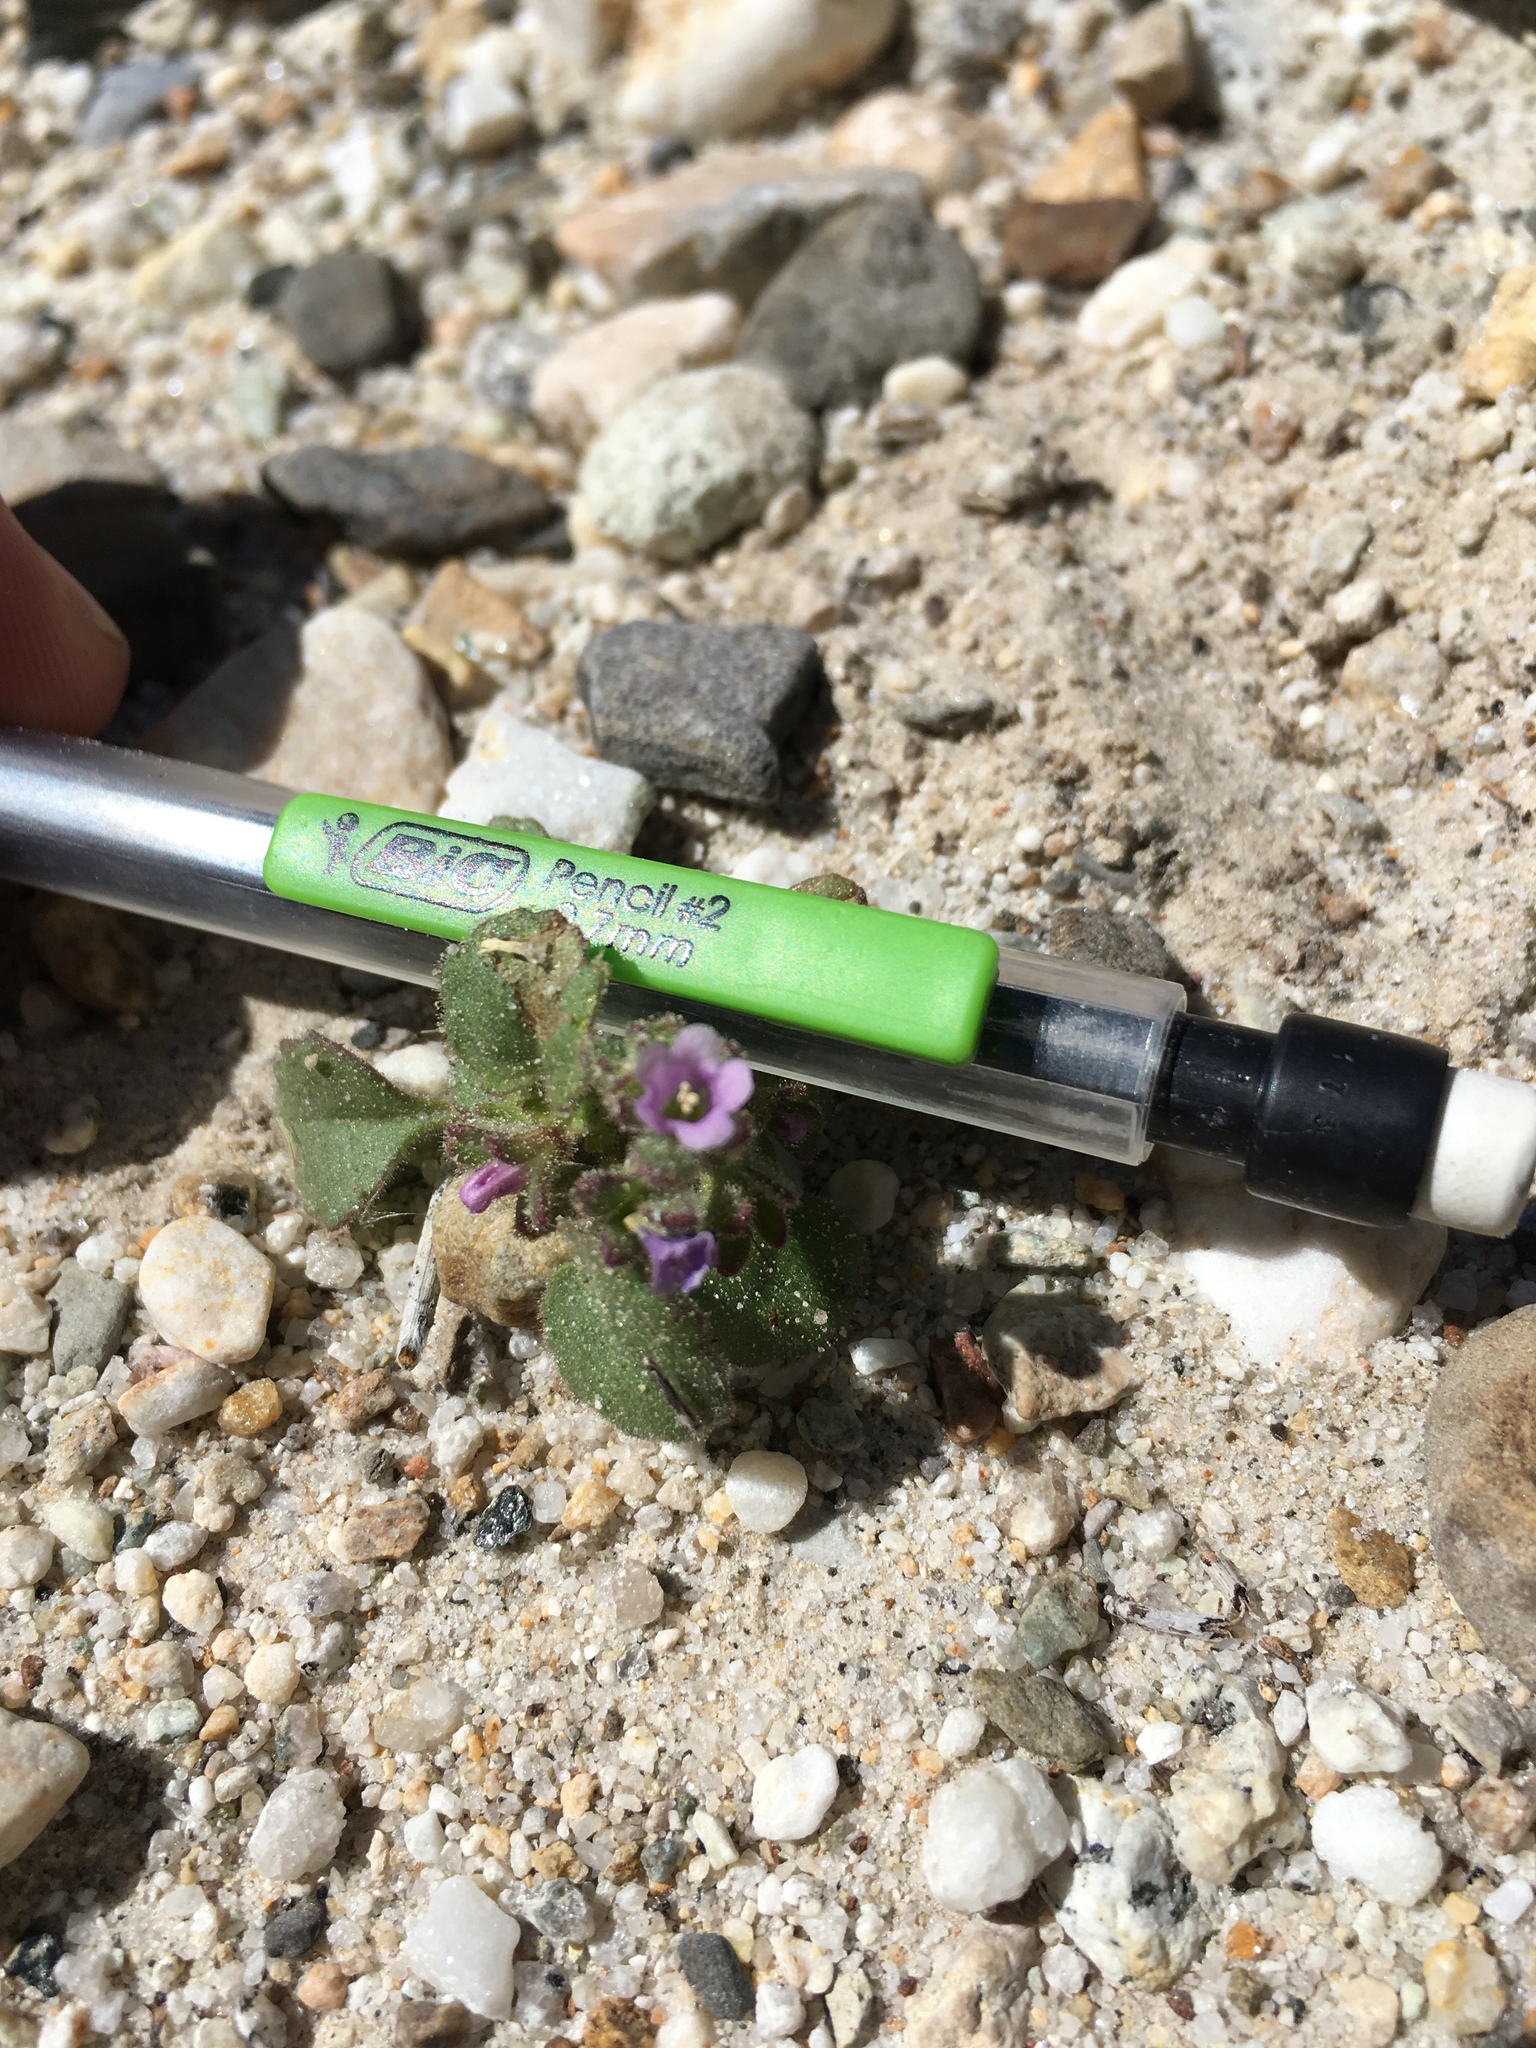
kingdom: Plantae
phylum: Tracheophyta
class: Magnoliopsida
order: Boraginales
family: Hydrophyllaceae
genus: Phacelia
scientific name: Phacelia peirsoniana
